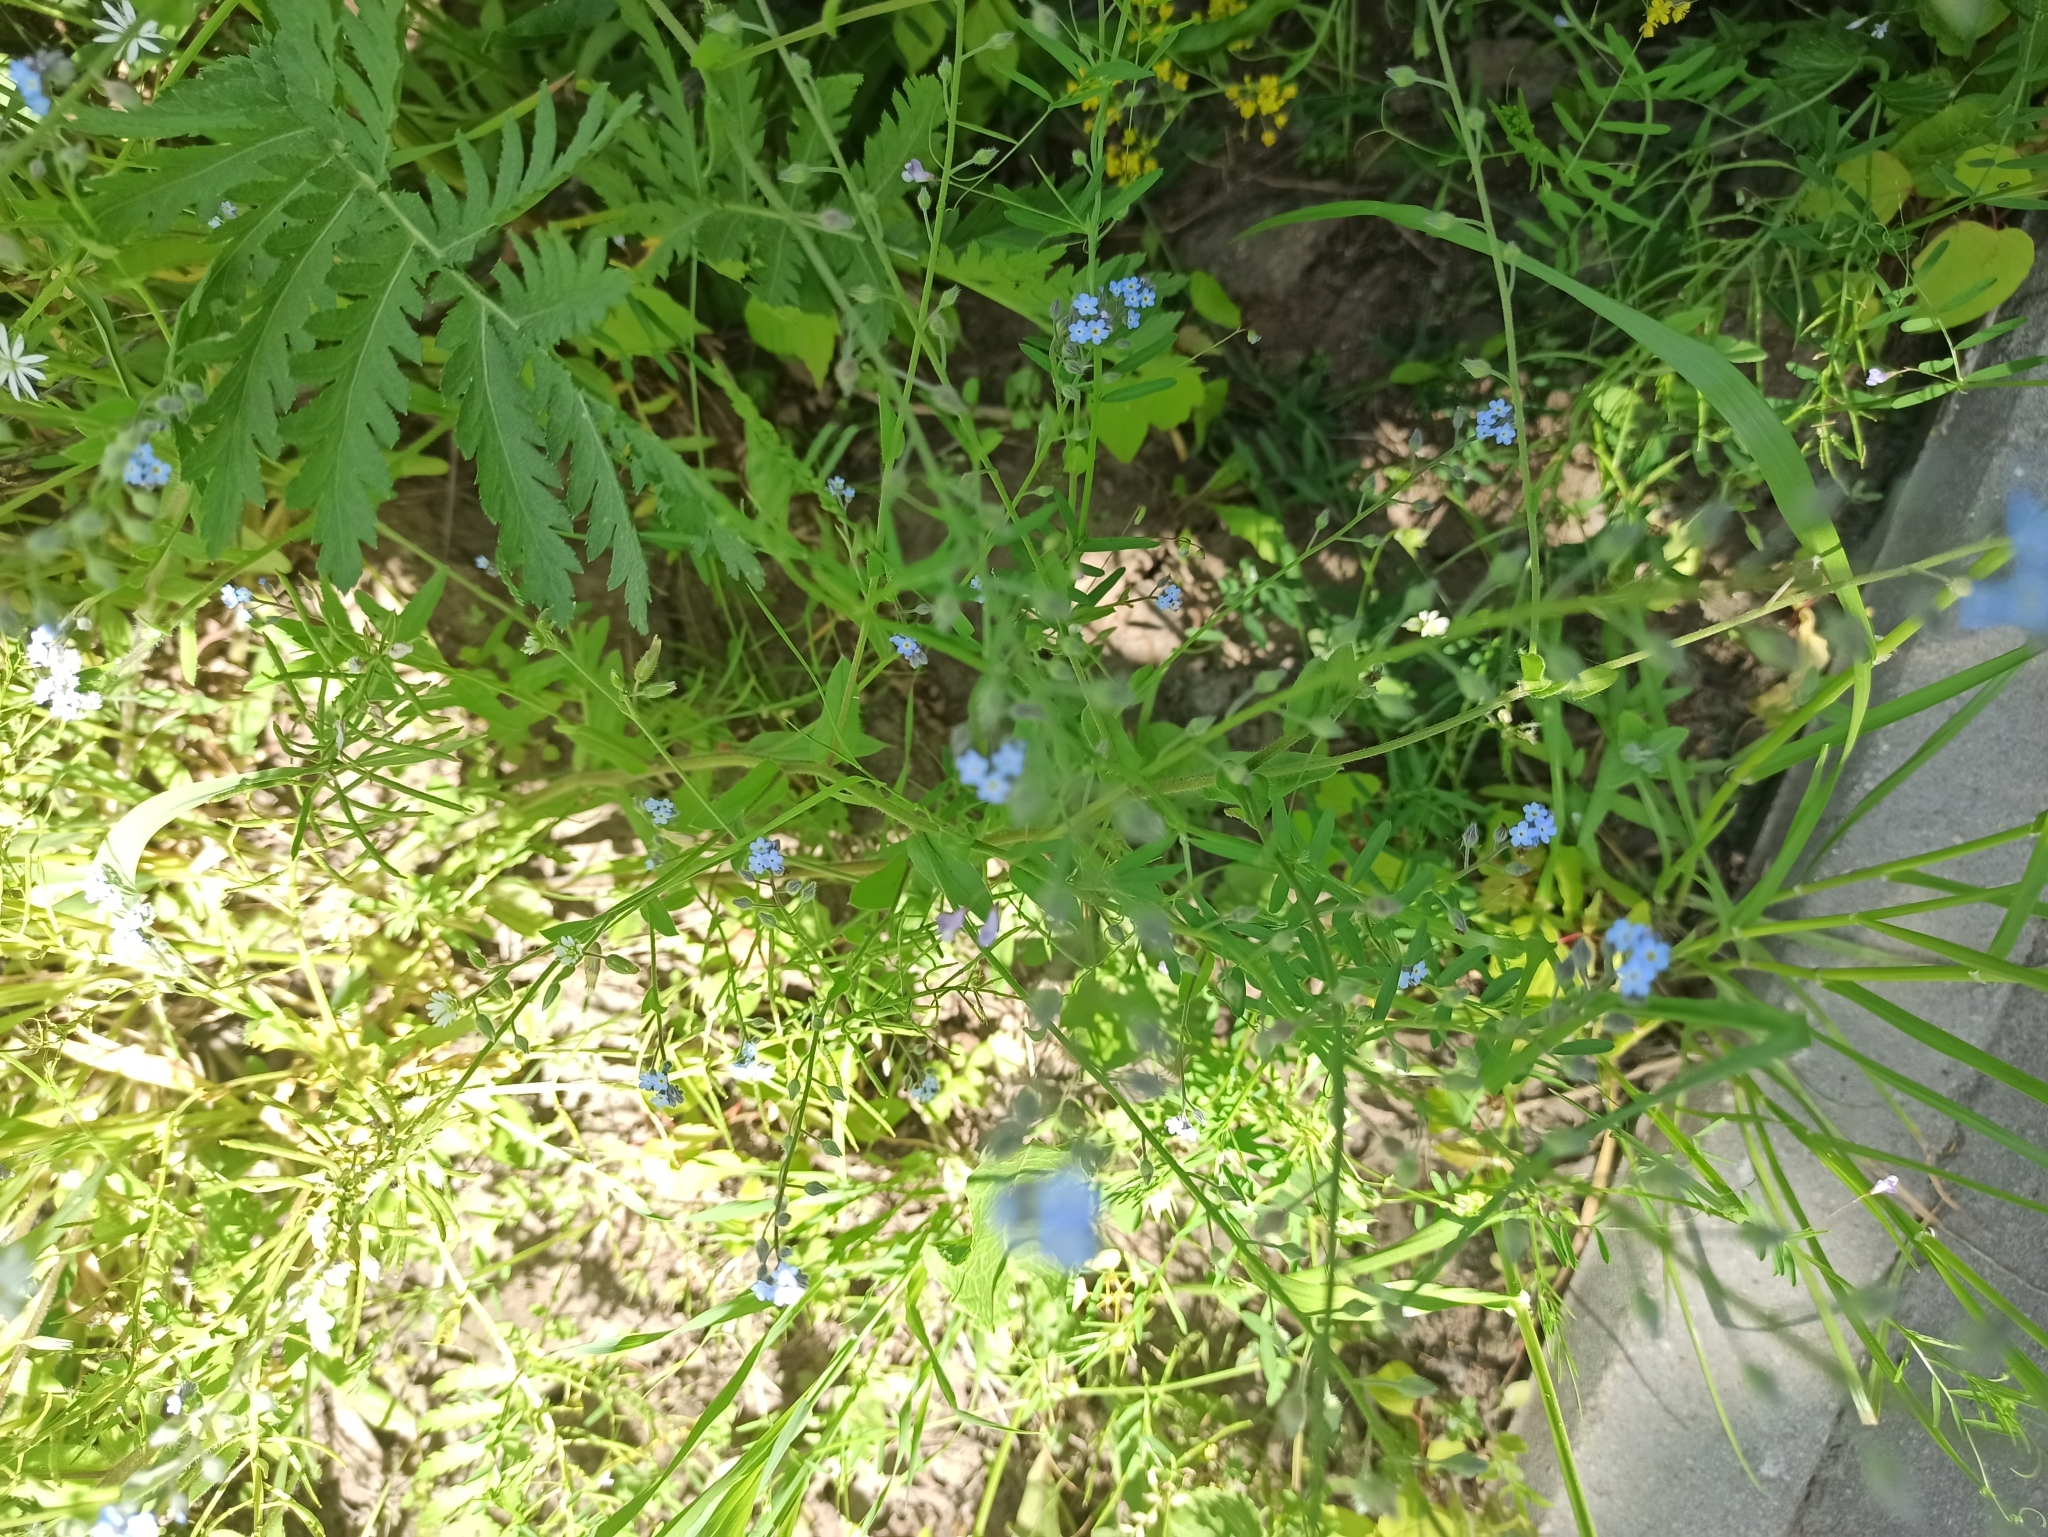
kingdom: Plantae
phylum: Tracheophyta
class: Magnoliopsida
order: Boraginales
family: Boraginaceae
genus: Myosotis
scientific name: Myosotis arvensis
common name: Field forget-me-not
